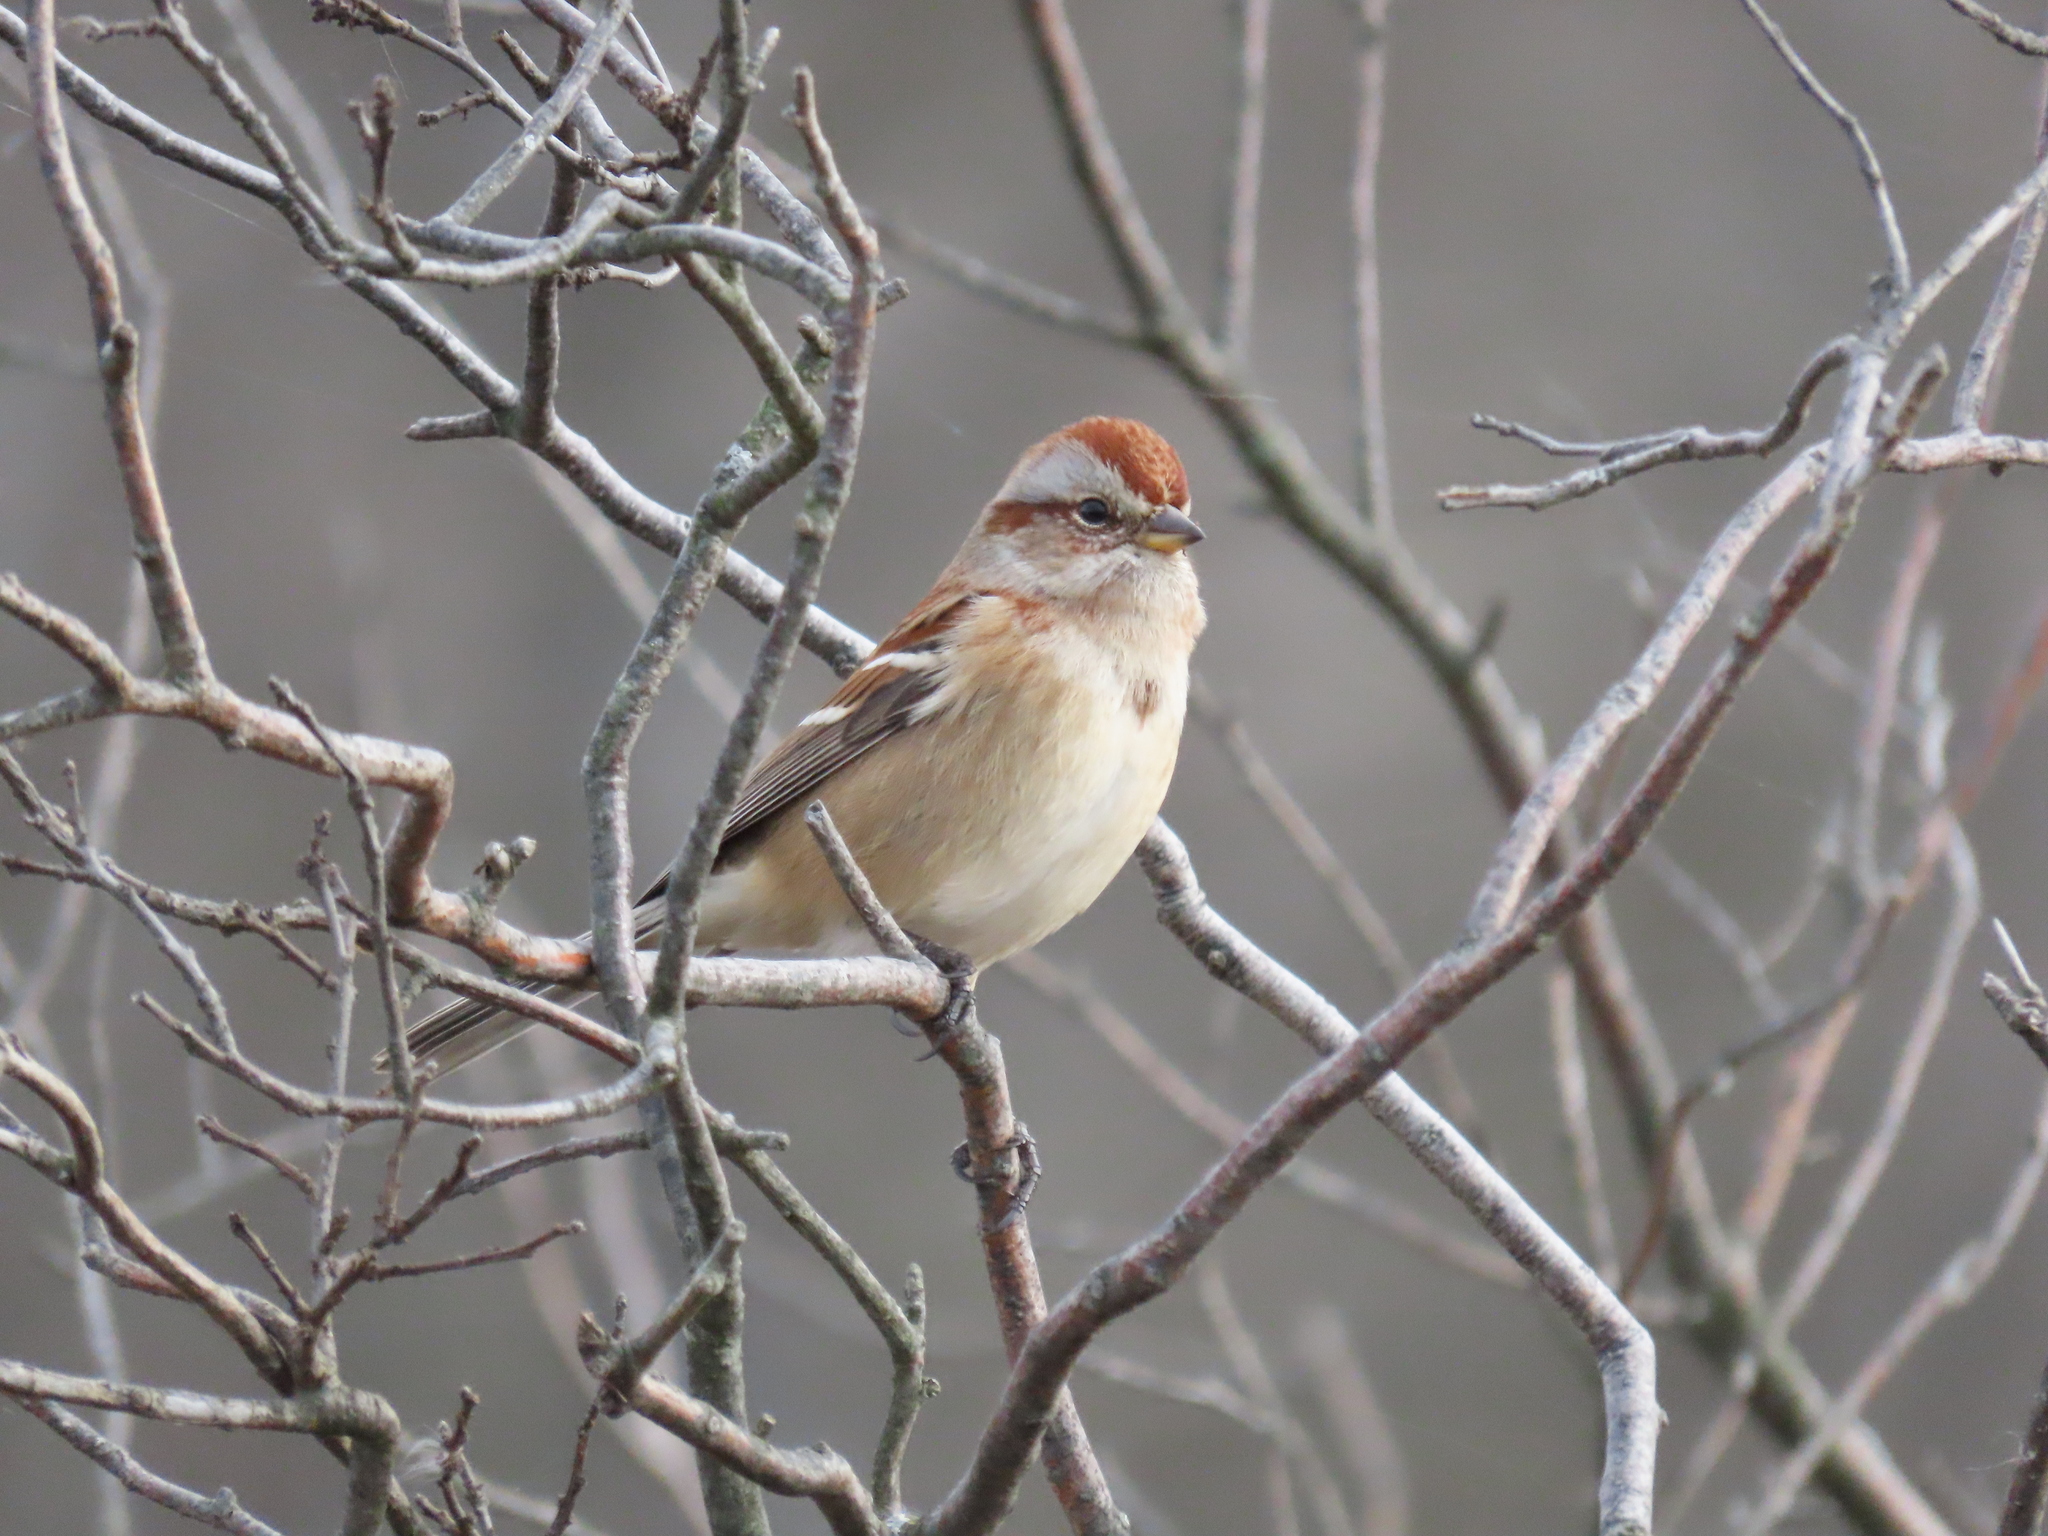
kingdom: Animalia
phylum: Chordata
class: Aves
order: Passeriformes
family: Passerellidae
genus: Spizelloides
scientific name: Spizelloides arborea
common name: American tree sparrow
